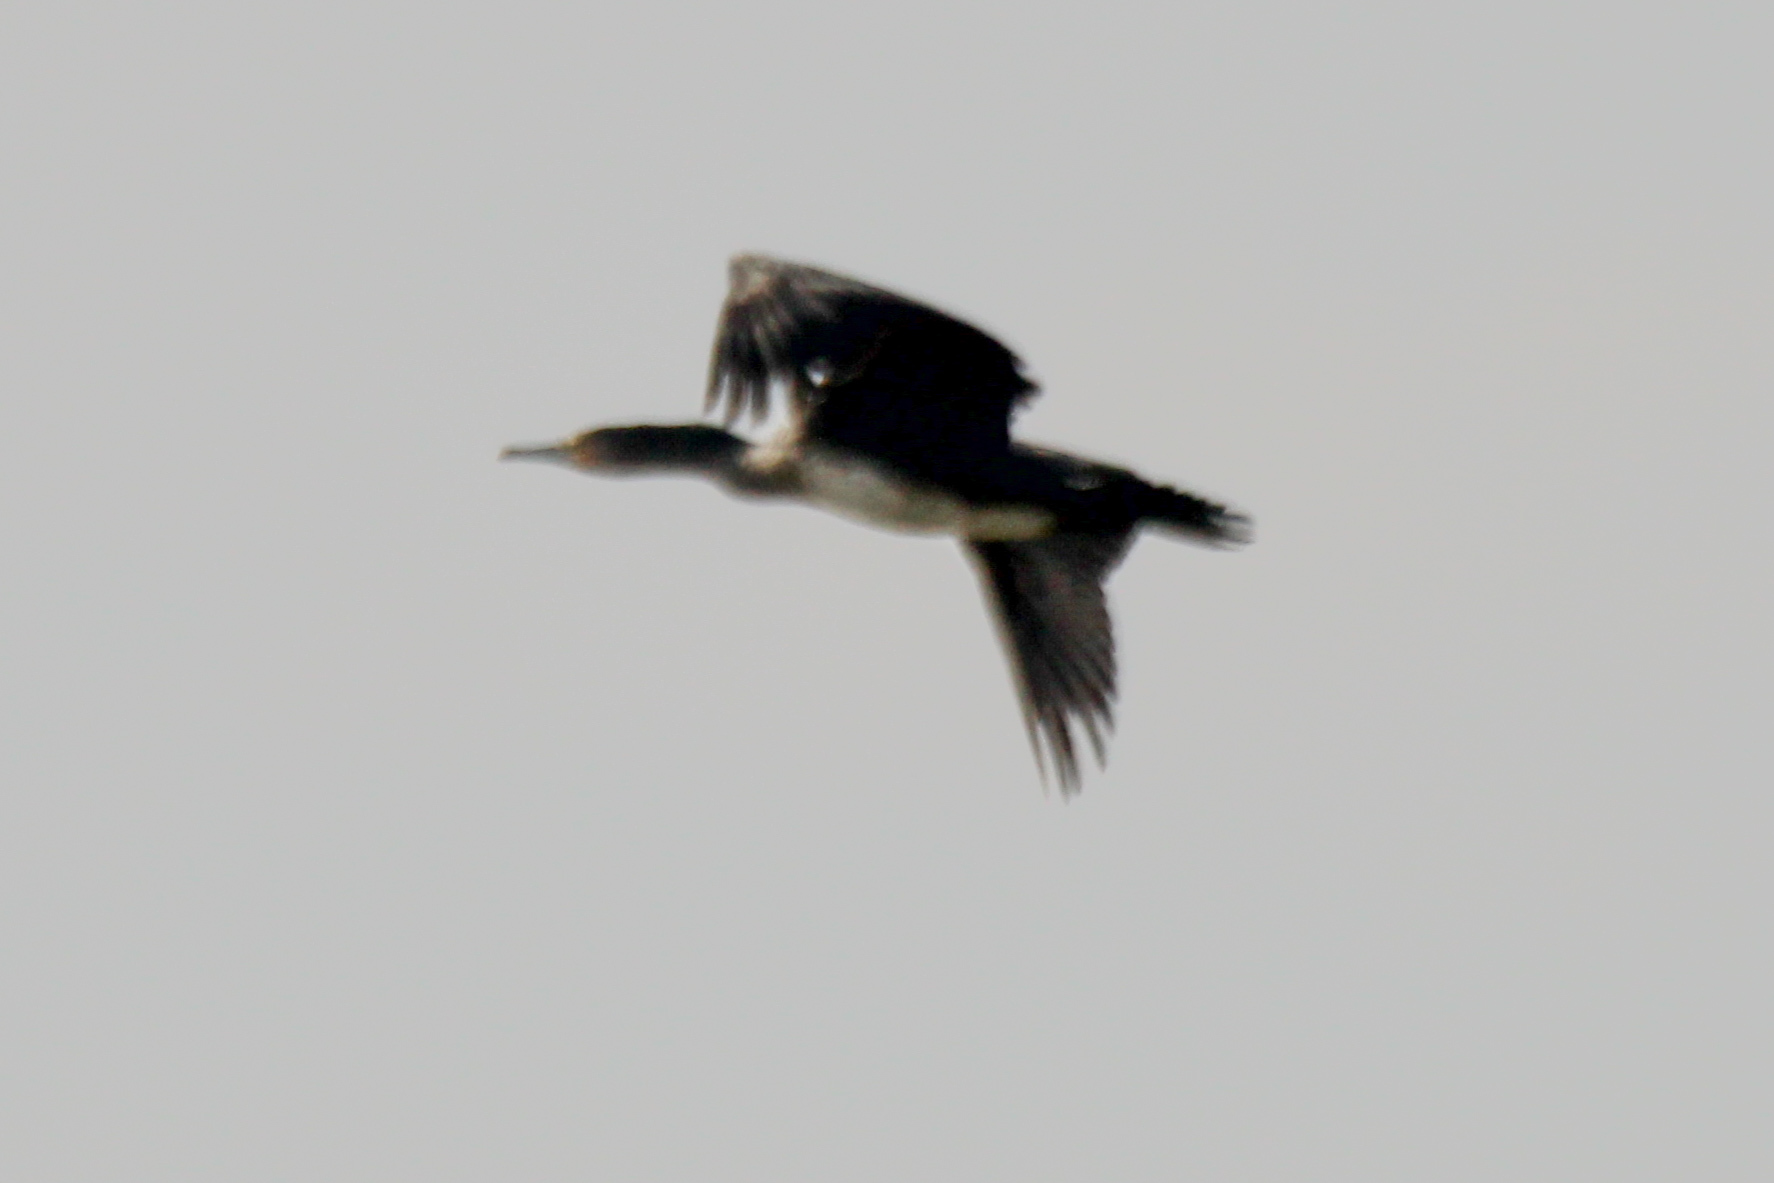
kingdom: Animalia
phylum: Chordata
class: Aves
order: Suliformes
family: Phalacrocoracidae
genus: Phalacrocorax
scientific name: Phalacrocorax carbo
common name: Great cormorant
